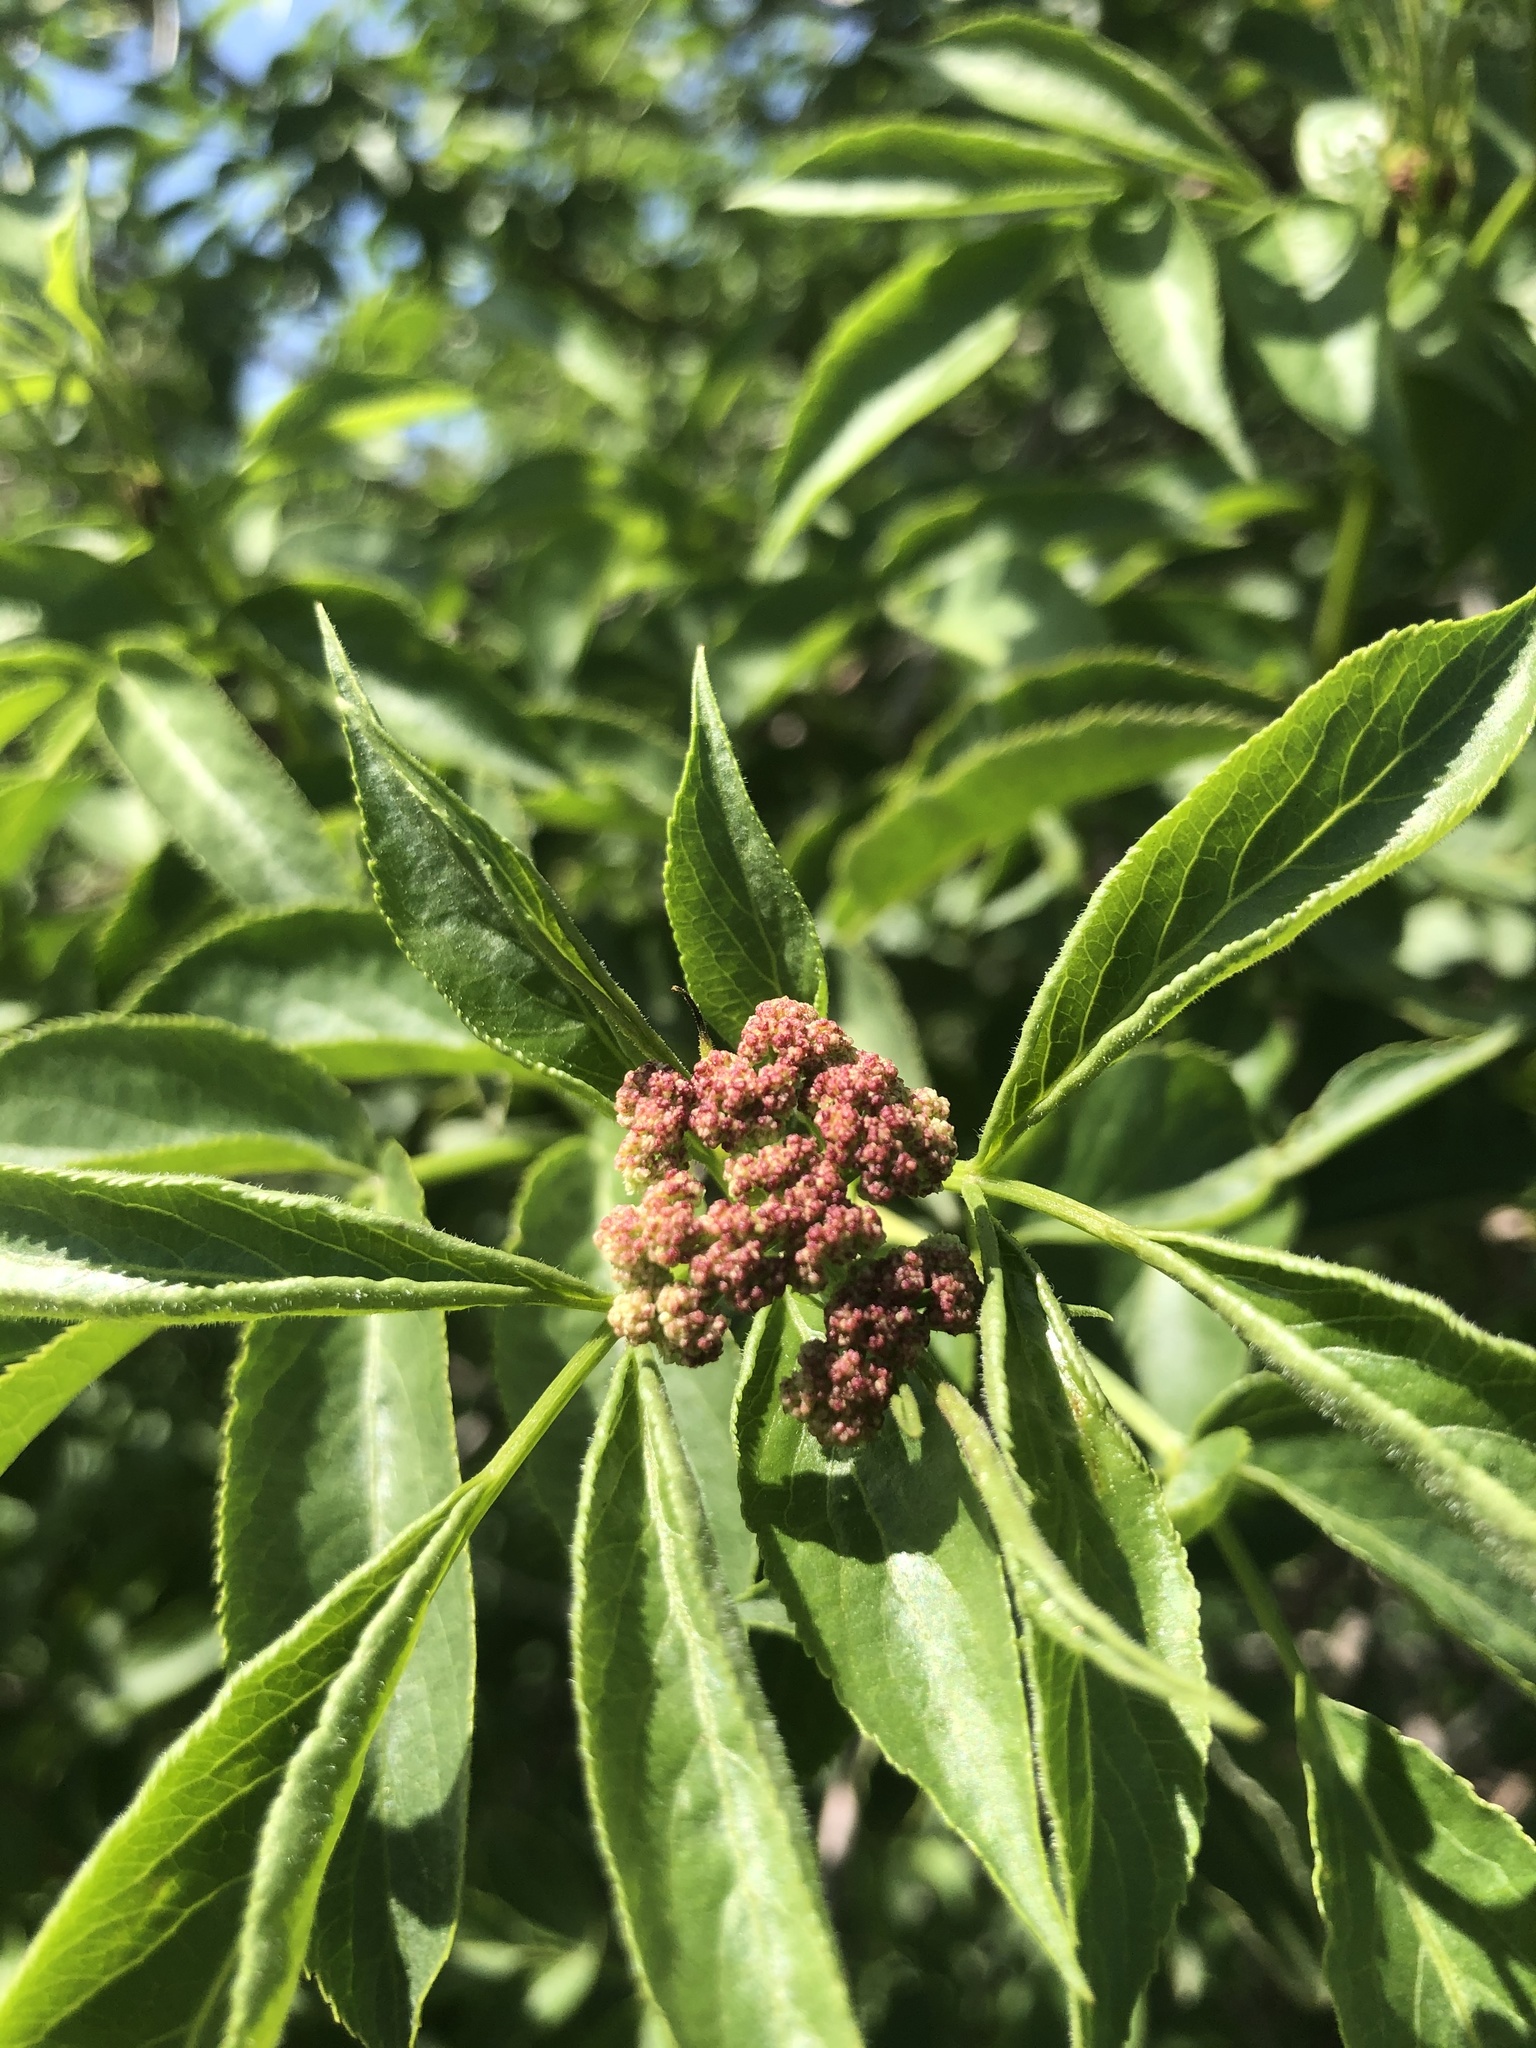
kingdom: Plantae
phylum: Tracheophyta
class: Magnoliopsida
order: Dipsacales
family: Viburnaceae
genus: Sambucus
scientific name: Sambucus cerulea
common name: Blue elder
